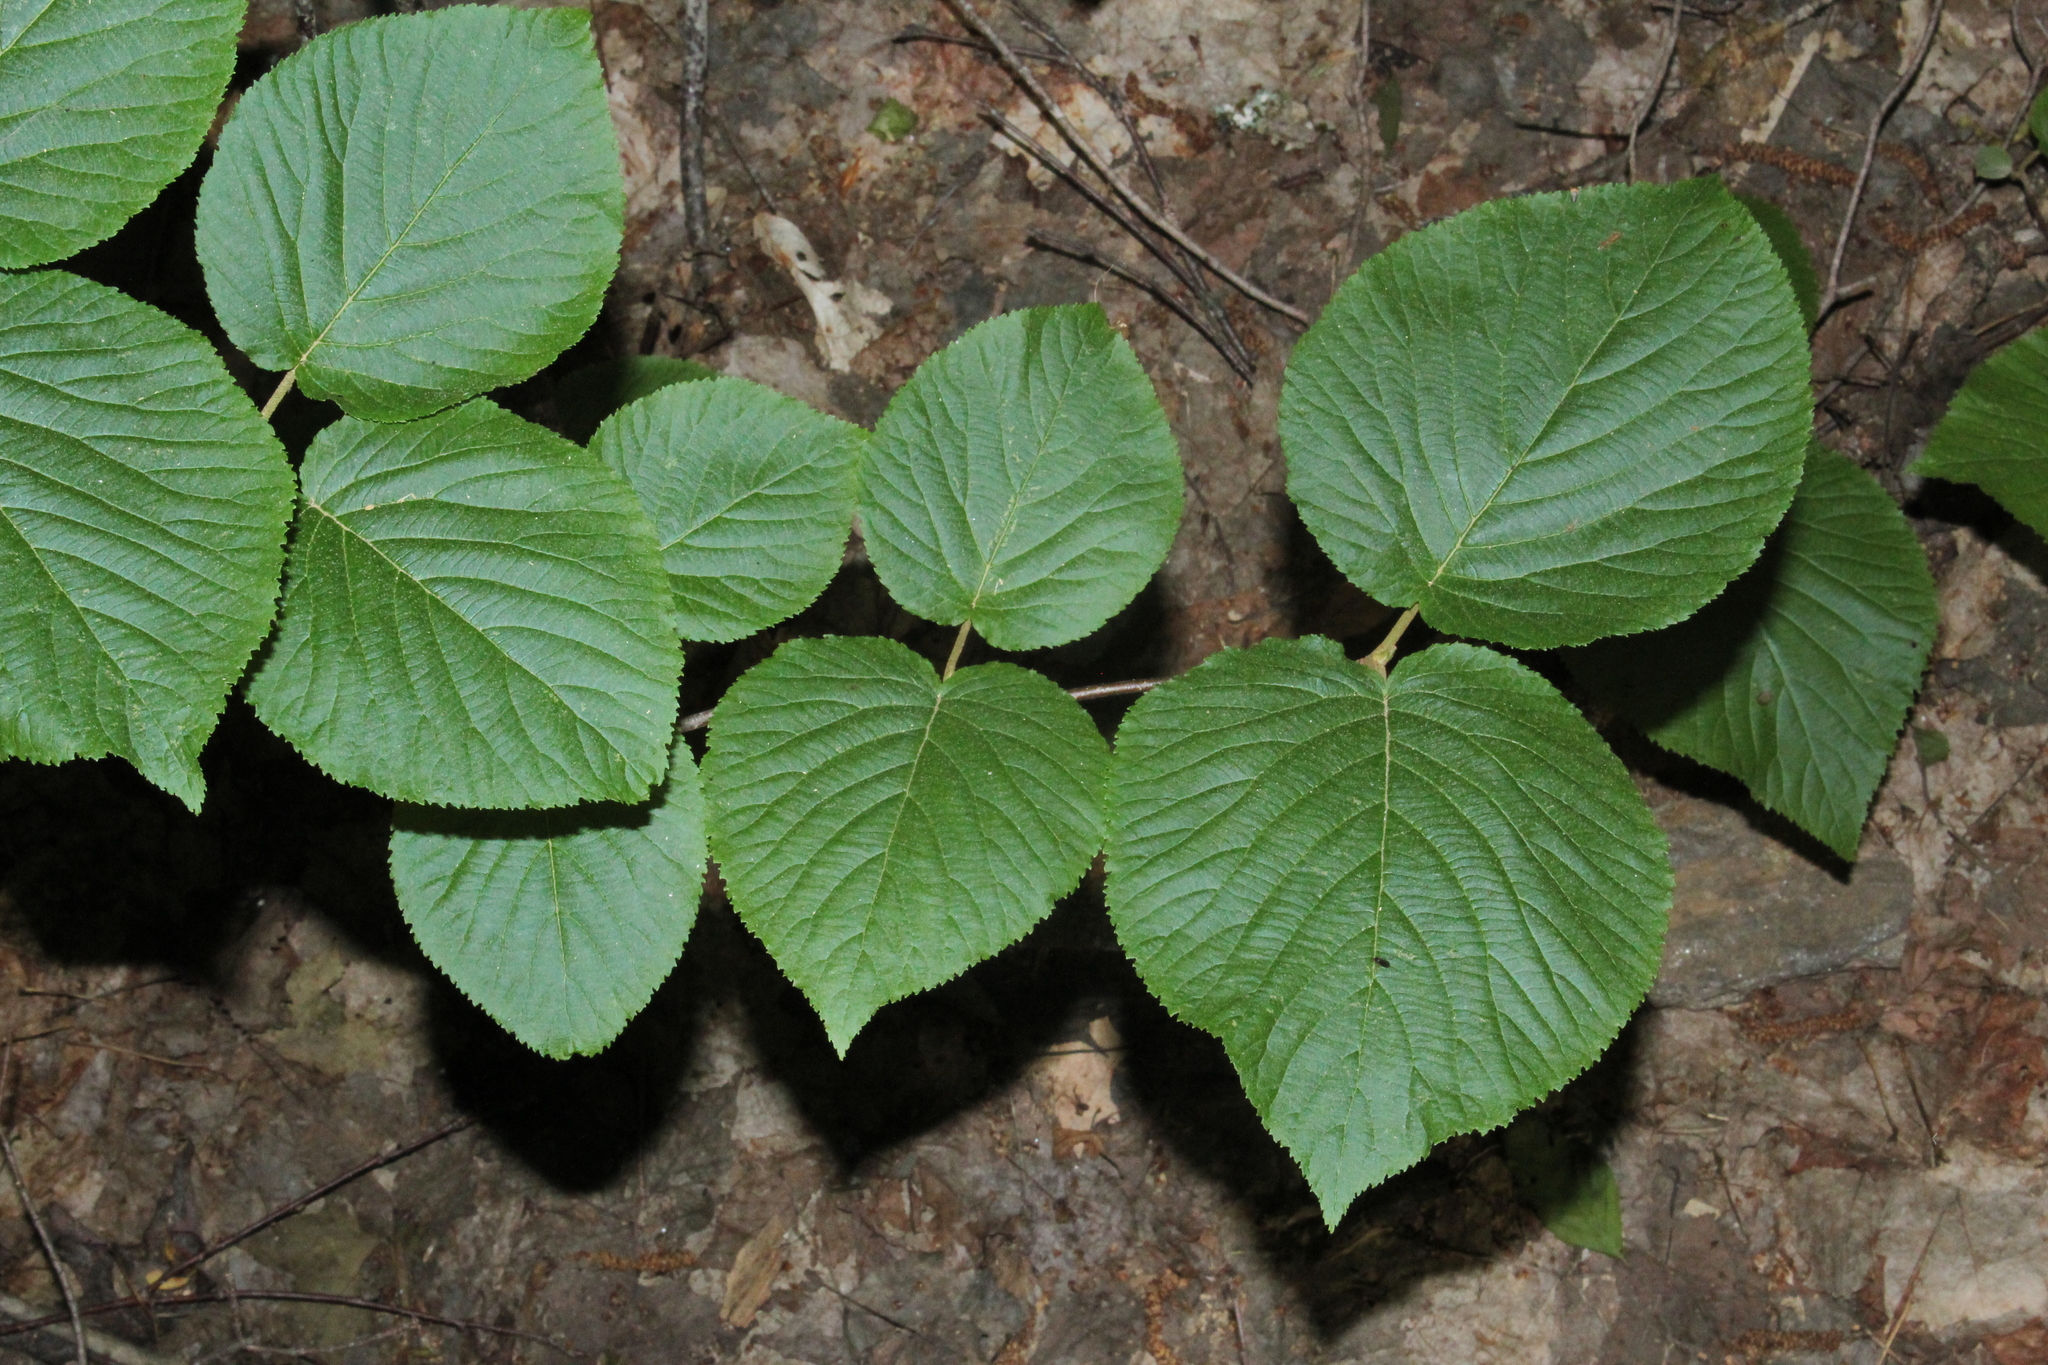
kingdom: Plantae
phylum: Tracheophyta
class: Magnoliopsida
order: Dipsacales
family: Viburnaceae
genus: Viburnum
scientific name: Viburnum lantanoides
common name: Hobblebush
